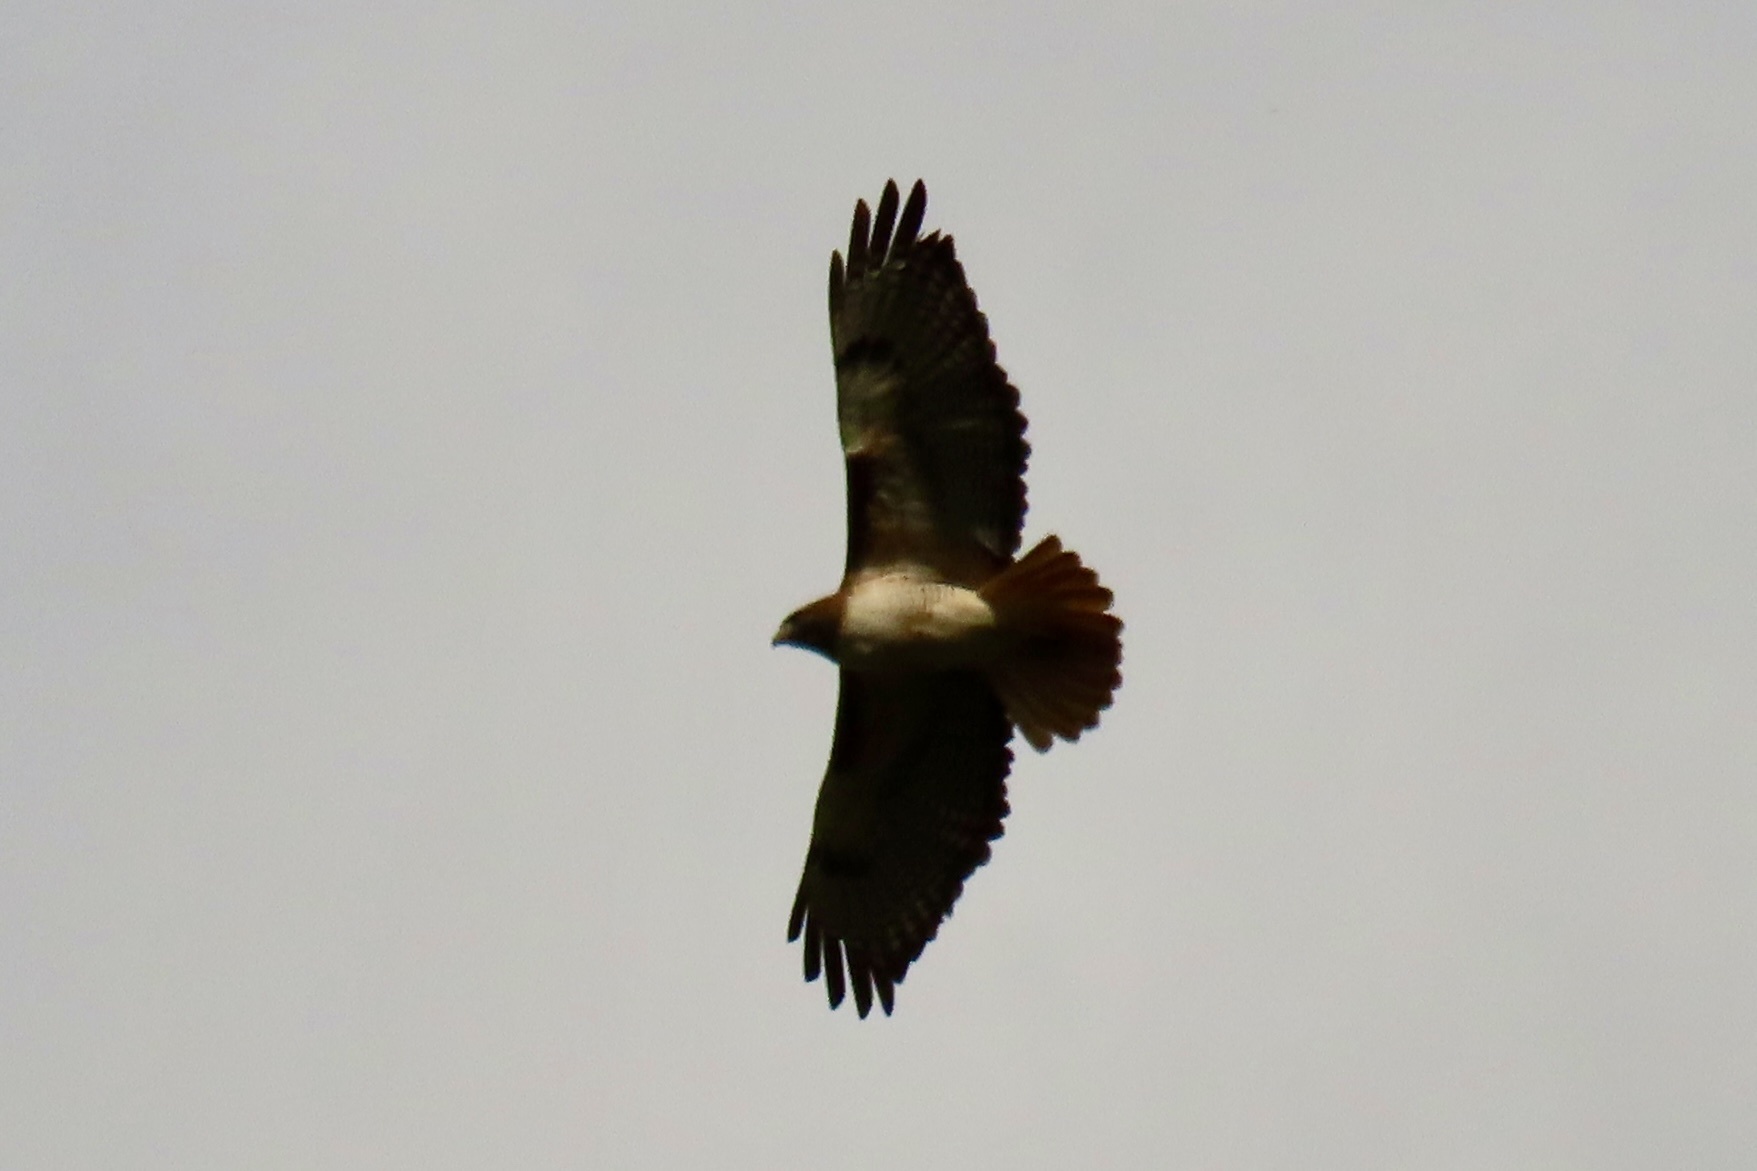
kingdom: Animalia
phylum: Chordata
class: Aves
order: Accipitriformes
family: Accipitridae
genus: Buteo
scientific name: Buteo jamaicensis
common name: Red-tailed hawk
